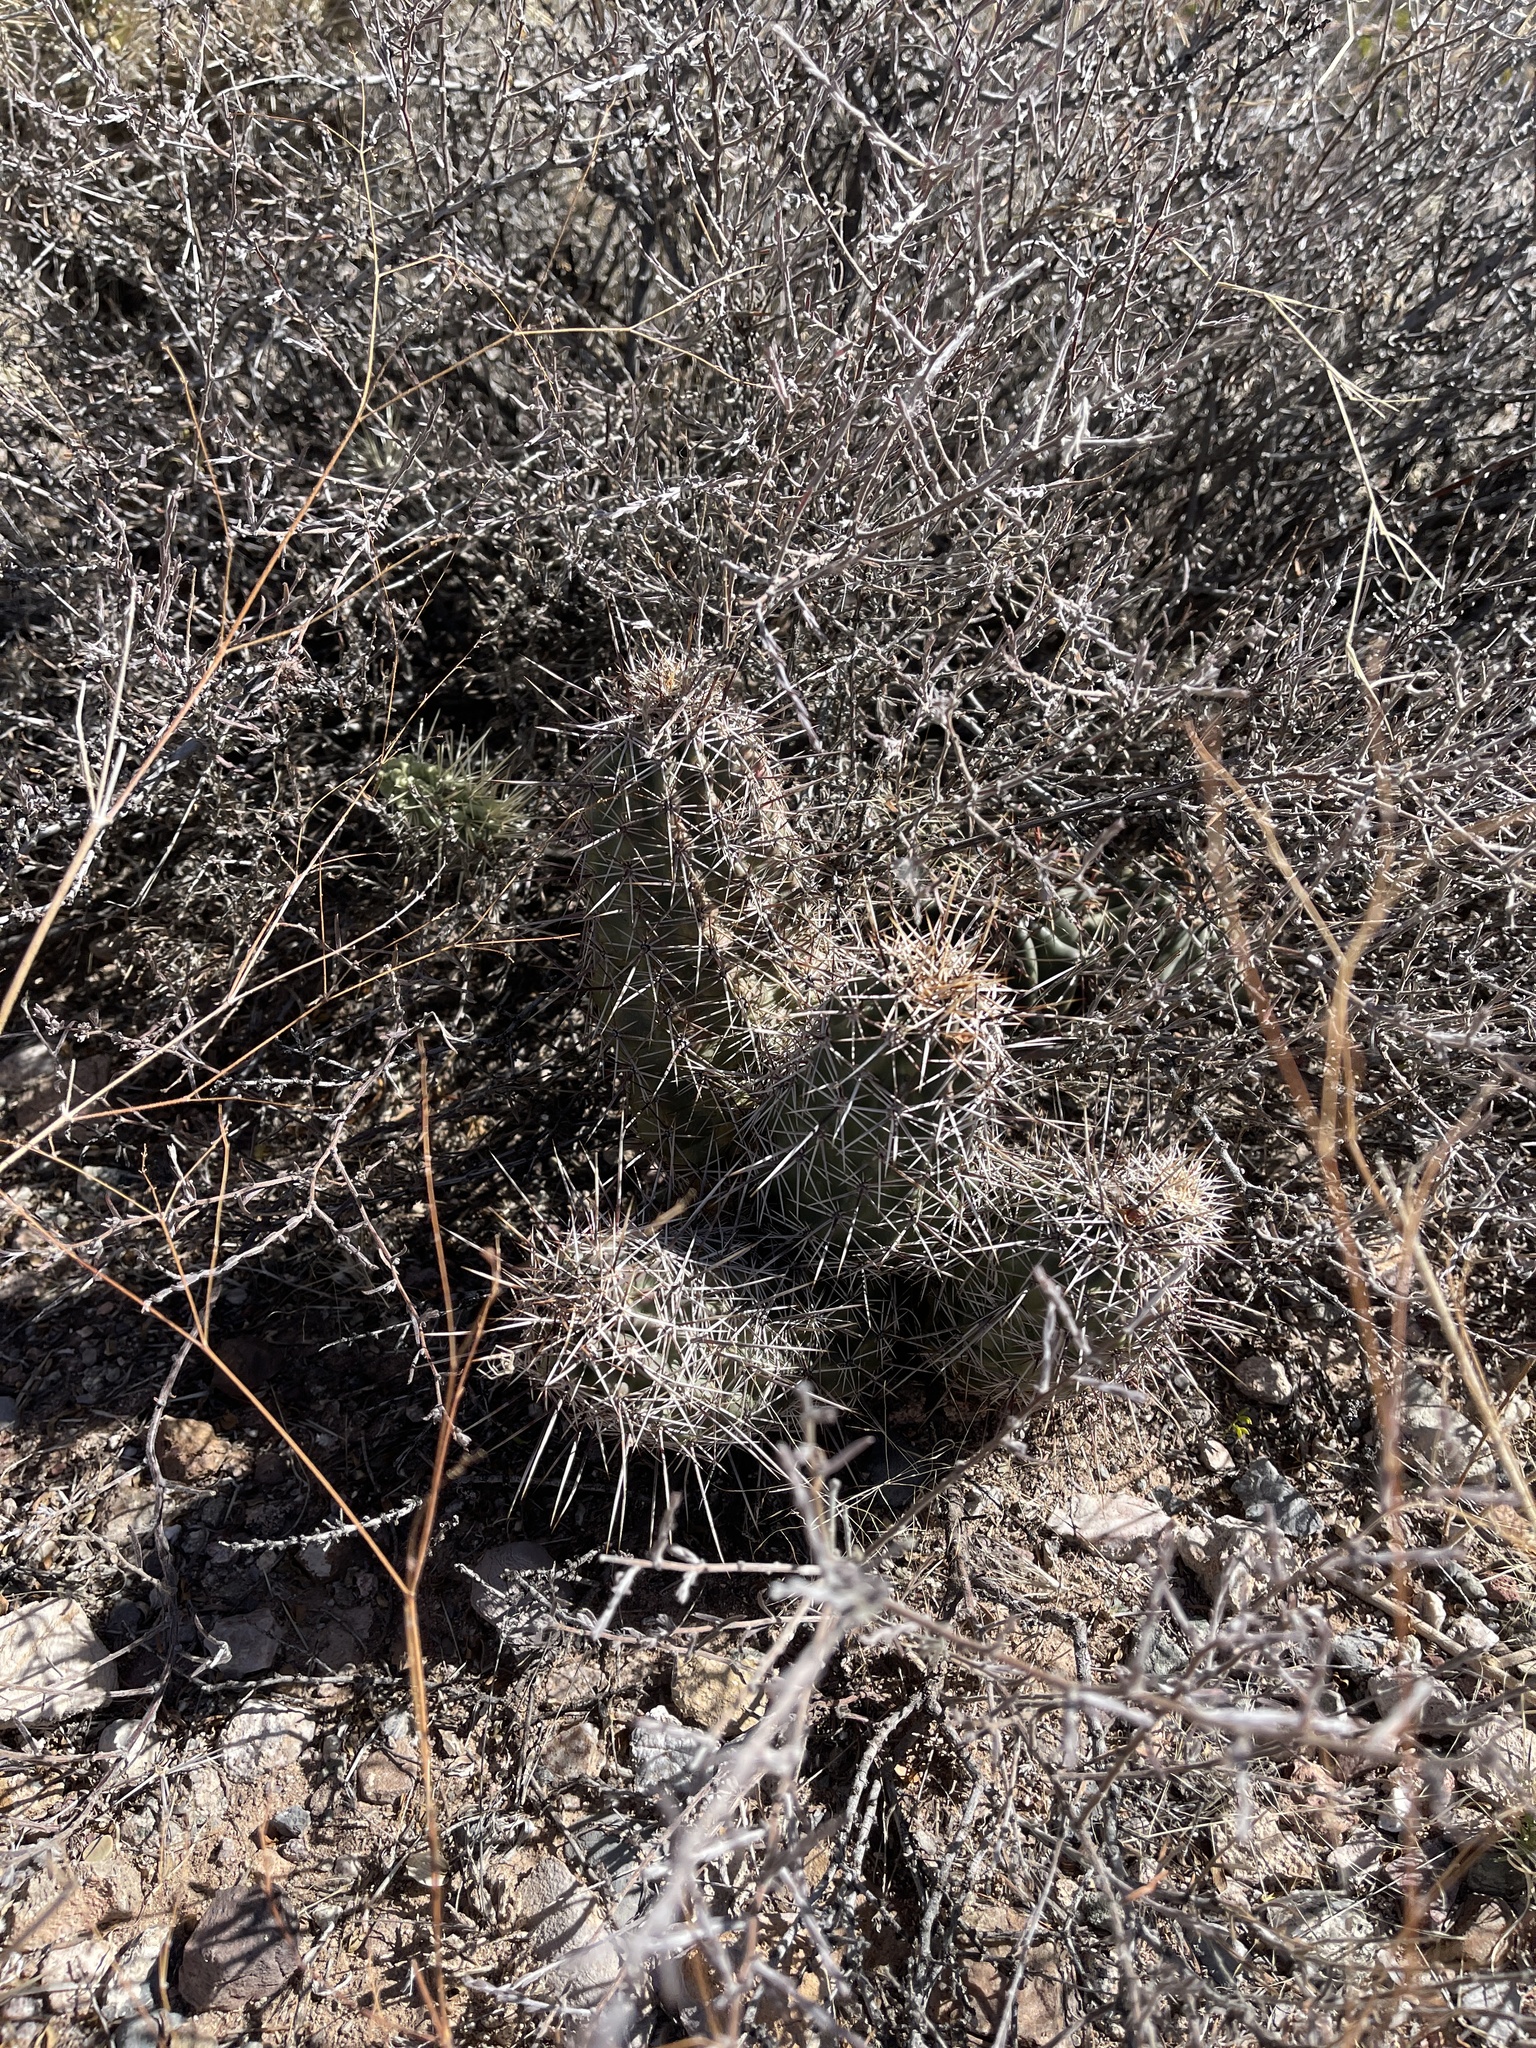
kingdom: Plantae
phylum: Tracheophyta
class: Magnoliopsida
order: Caryophyllales
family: Cactaceae
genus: Echinocereus
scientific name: Echinocereus fasciculatus
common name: Bundle hedgehog
